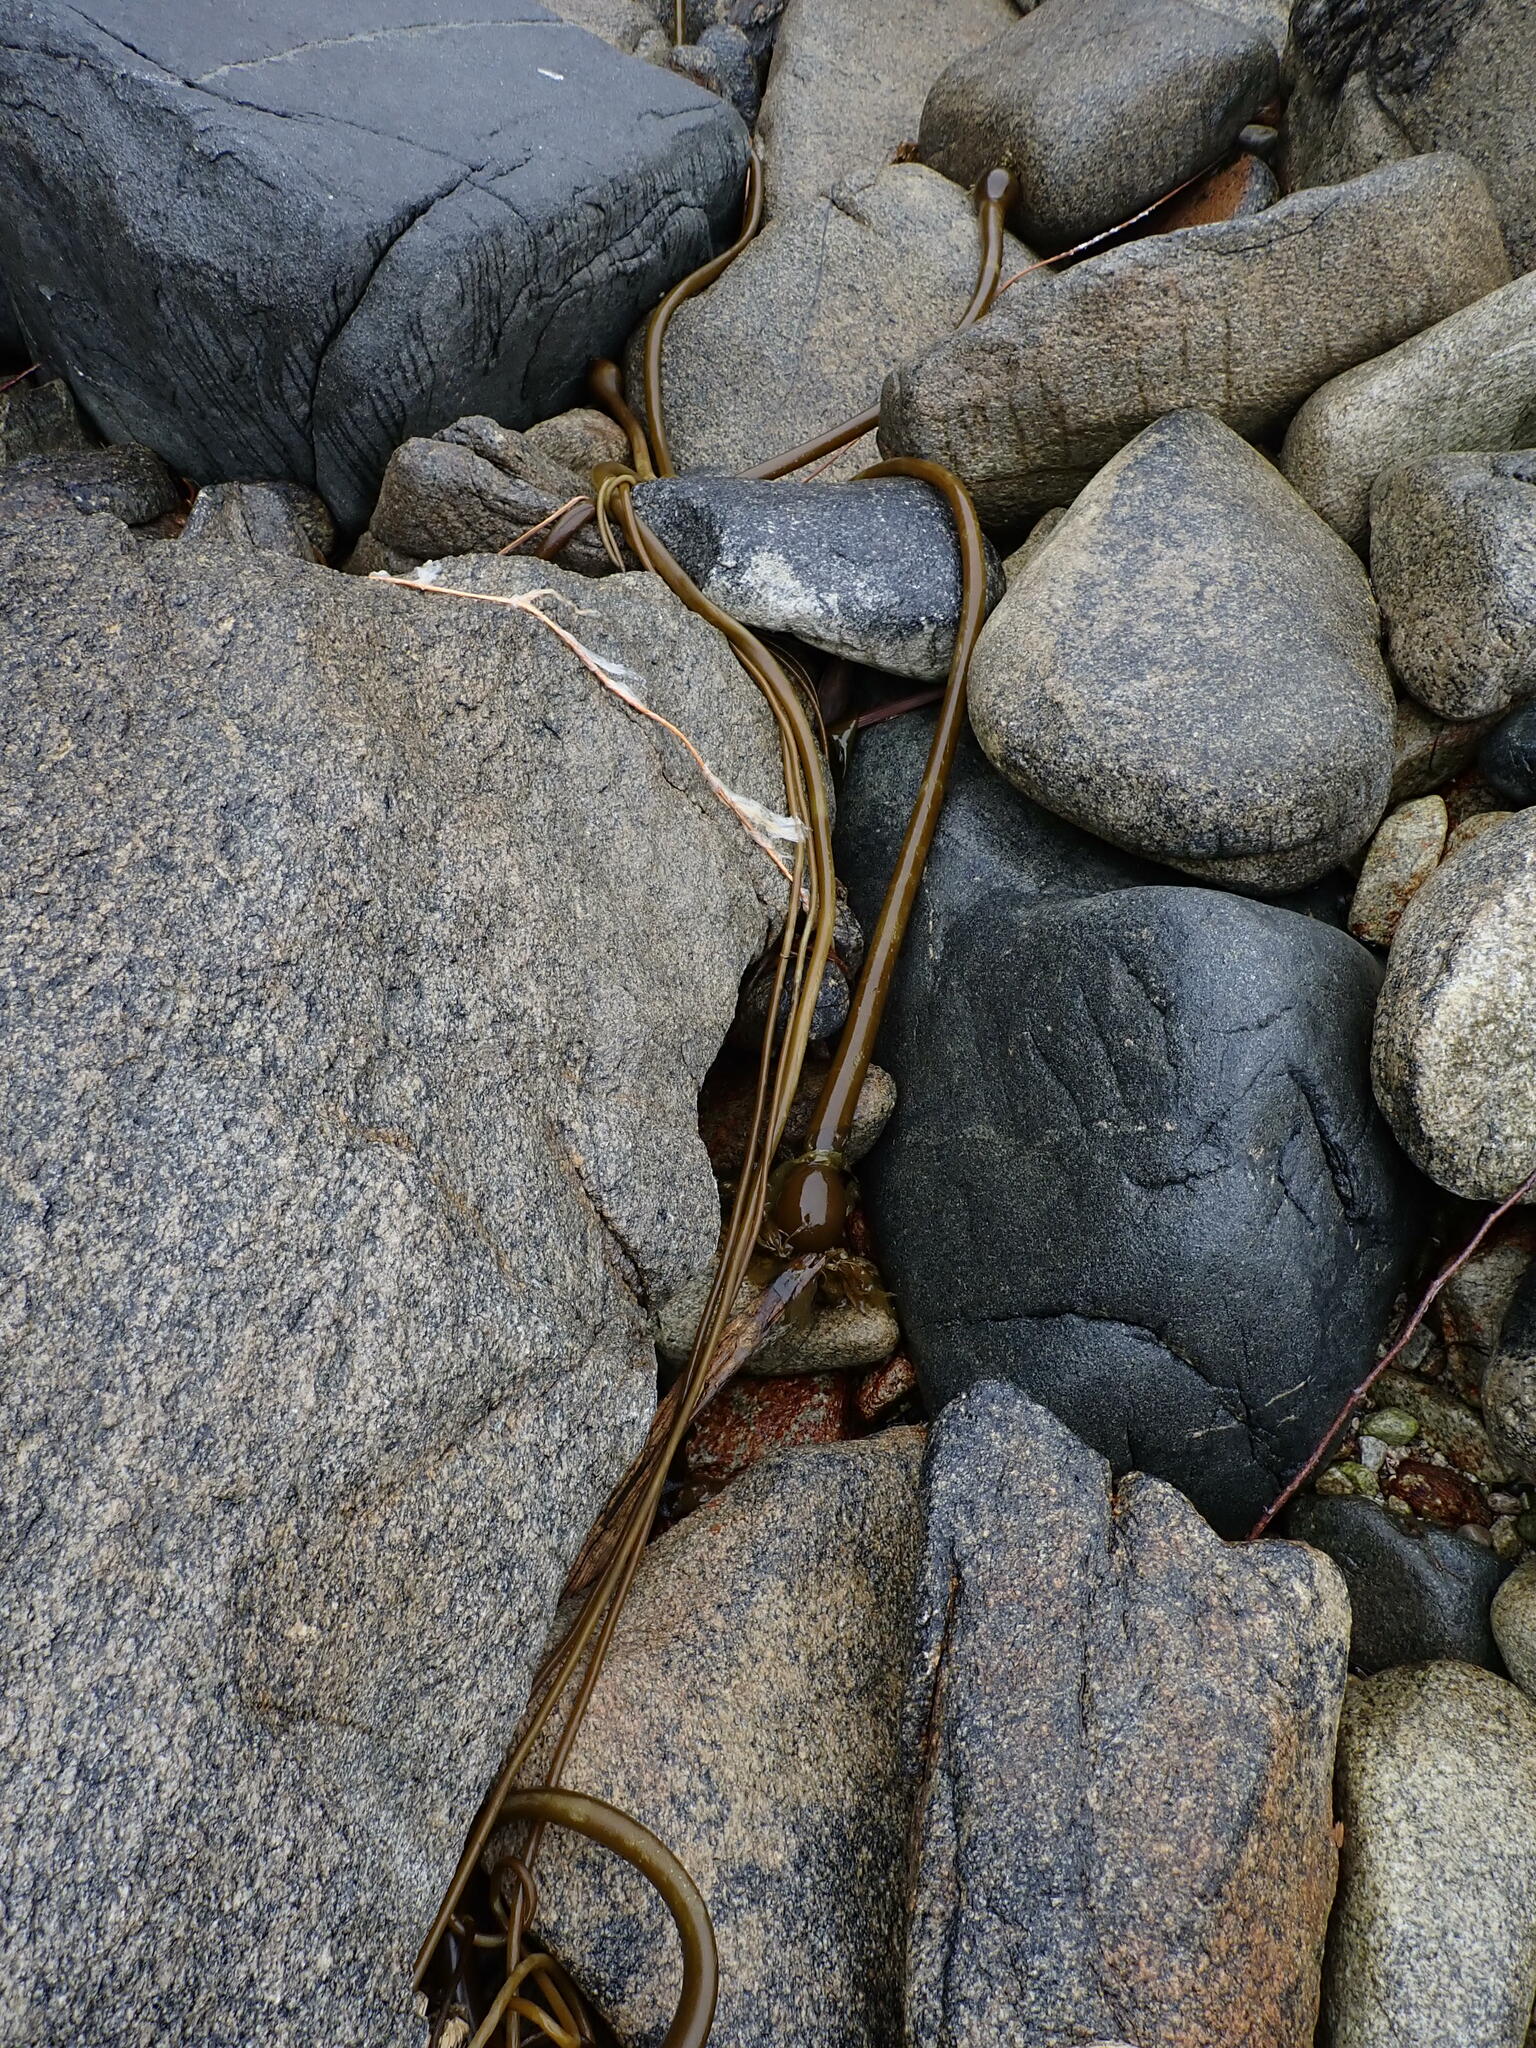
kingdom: Chromista
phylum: Ochrophyta
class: Phaeophyceae
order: Laminariales
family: Laminariaceae
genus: Nereocystis
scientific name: Nereocystis luetkeana
